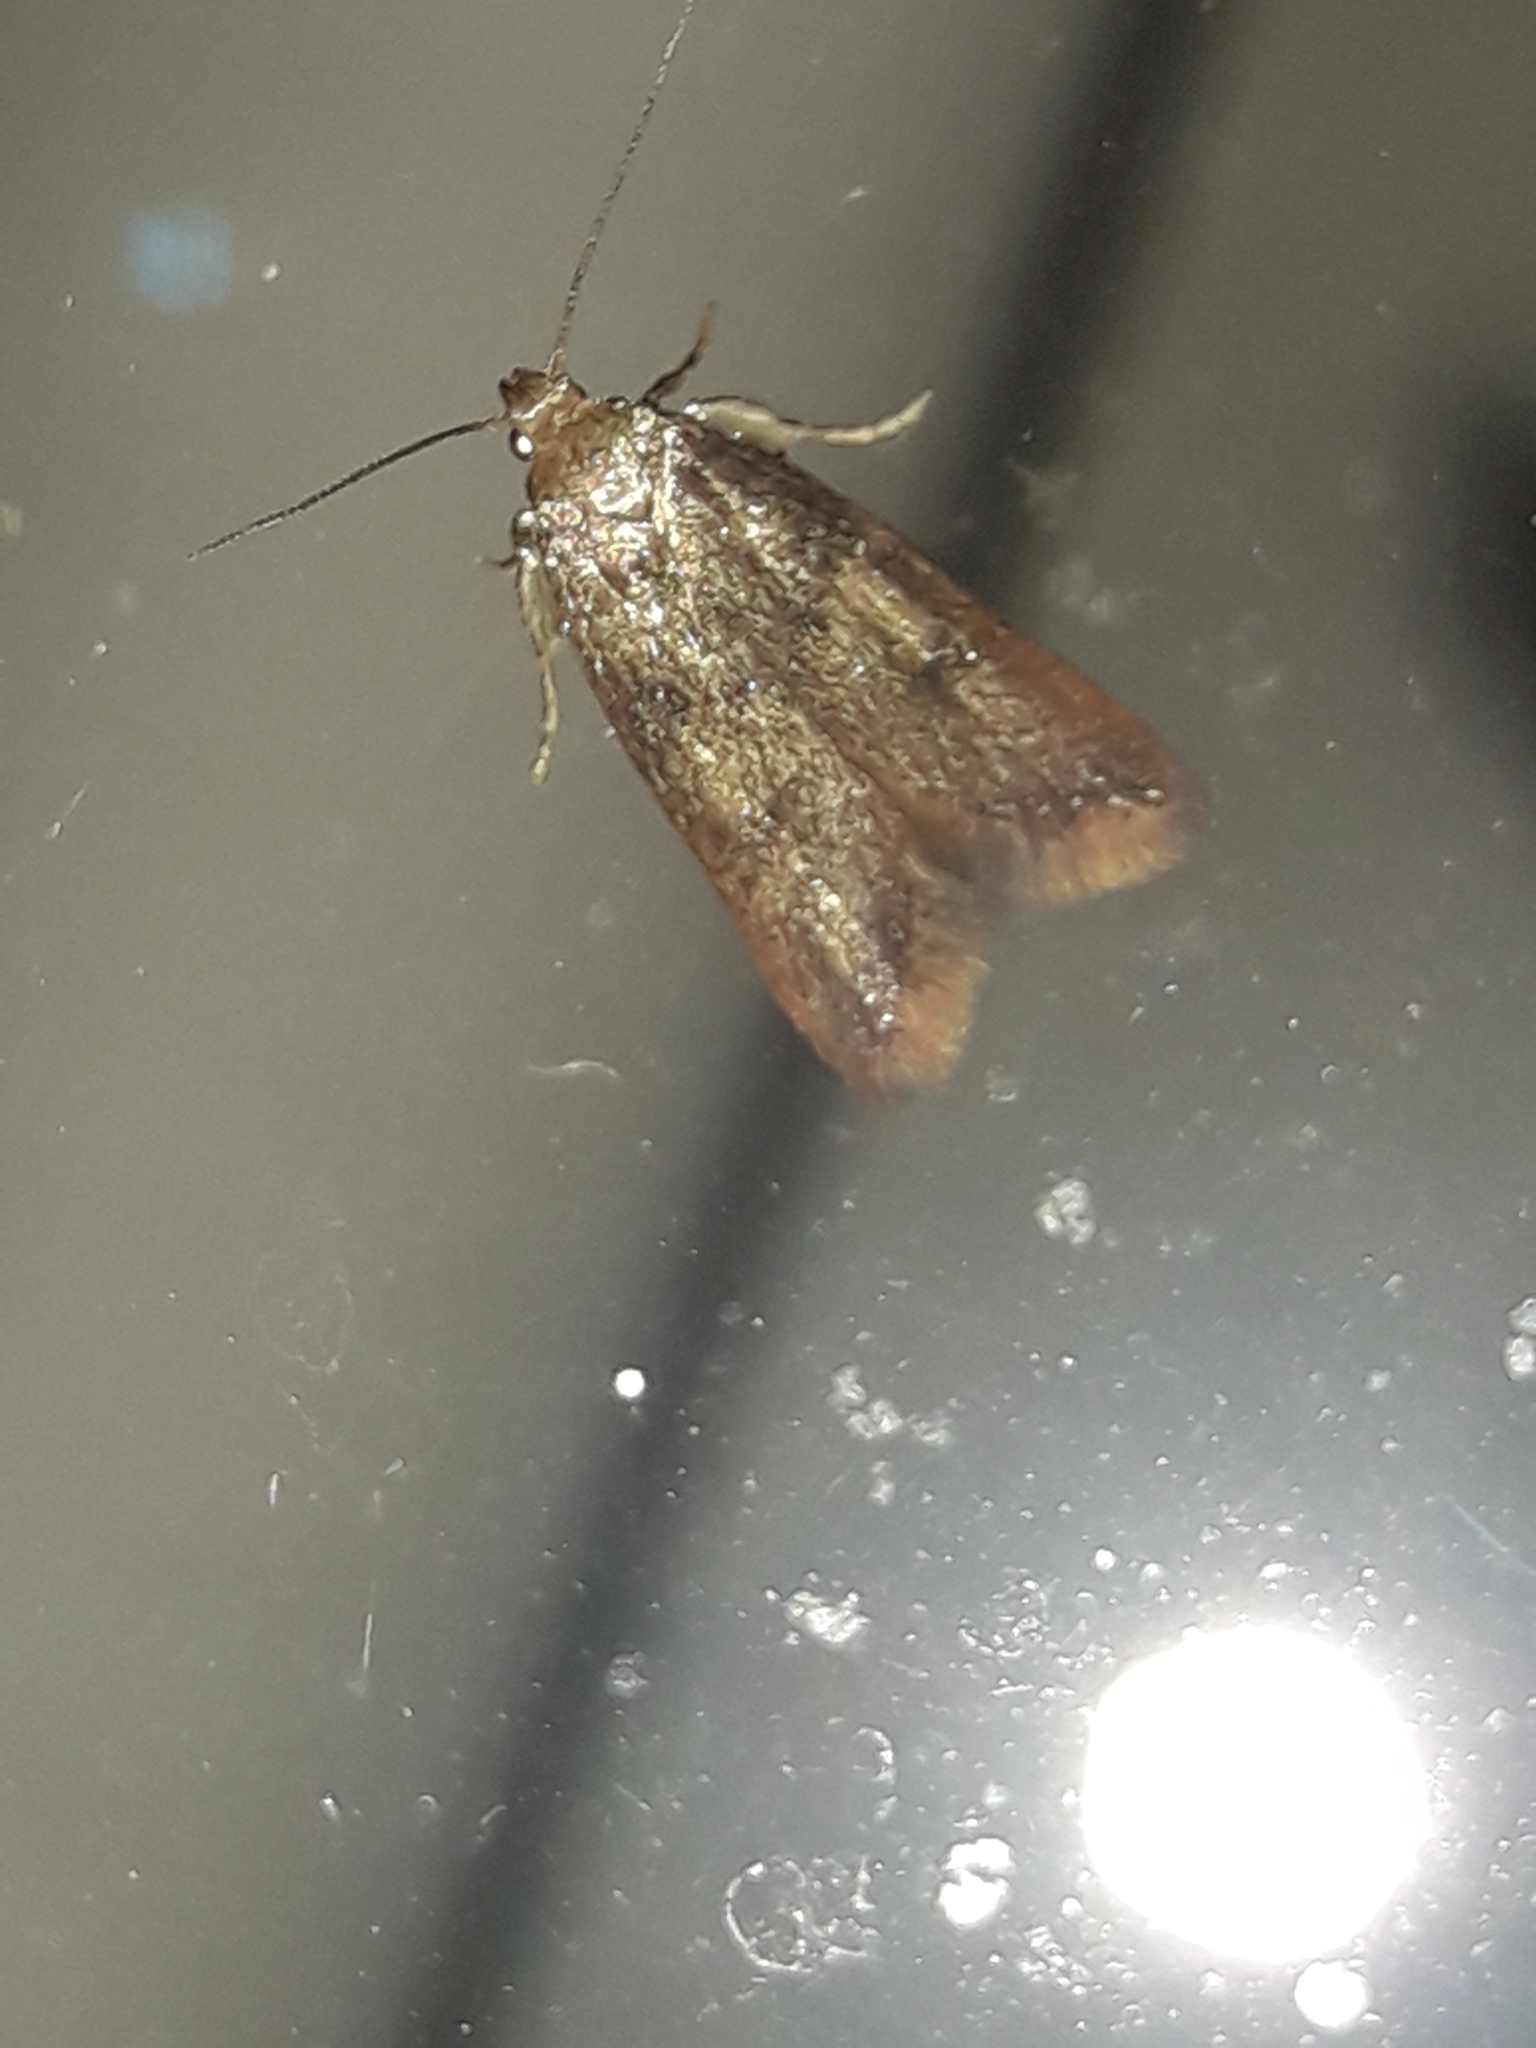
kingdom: Animalia
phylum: Arthropoda
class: Insecta
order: Lepidoptera
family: Oecophoridae
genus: Tachystola
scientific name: Tachystola acroxantha
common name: Ruddy streak
